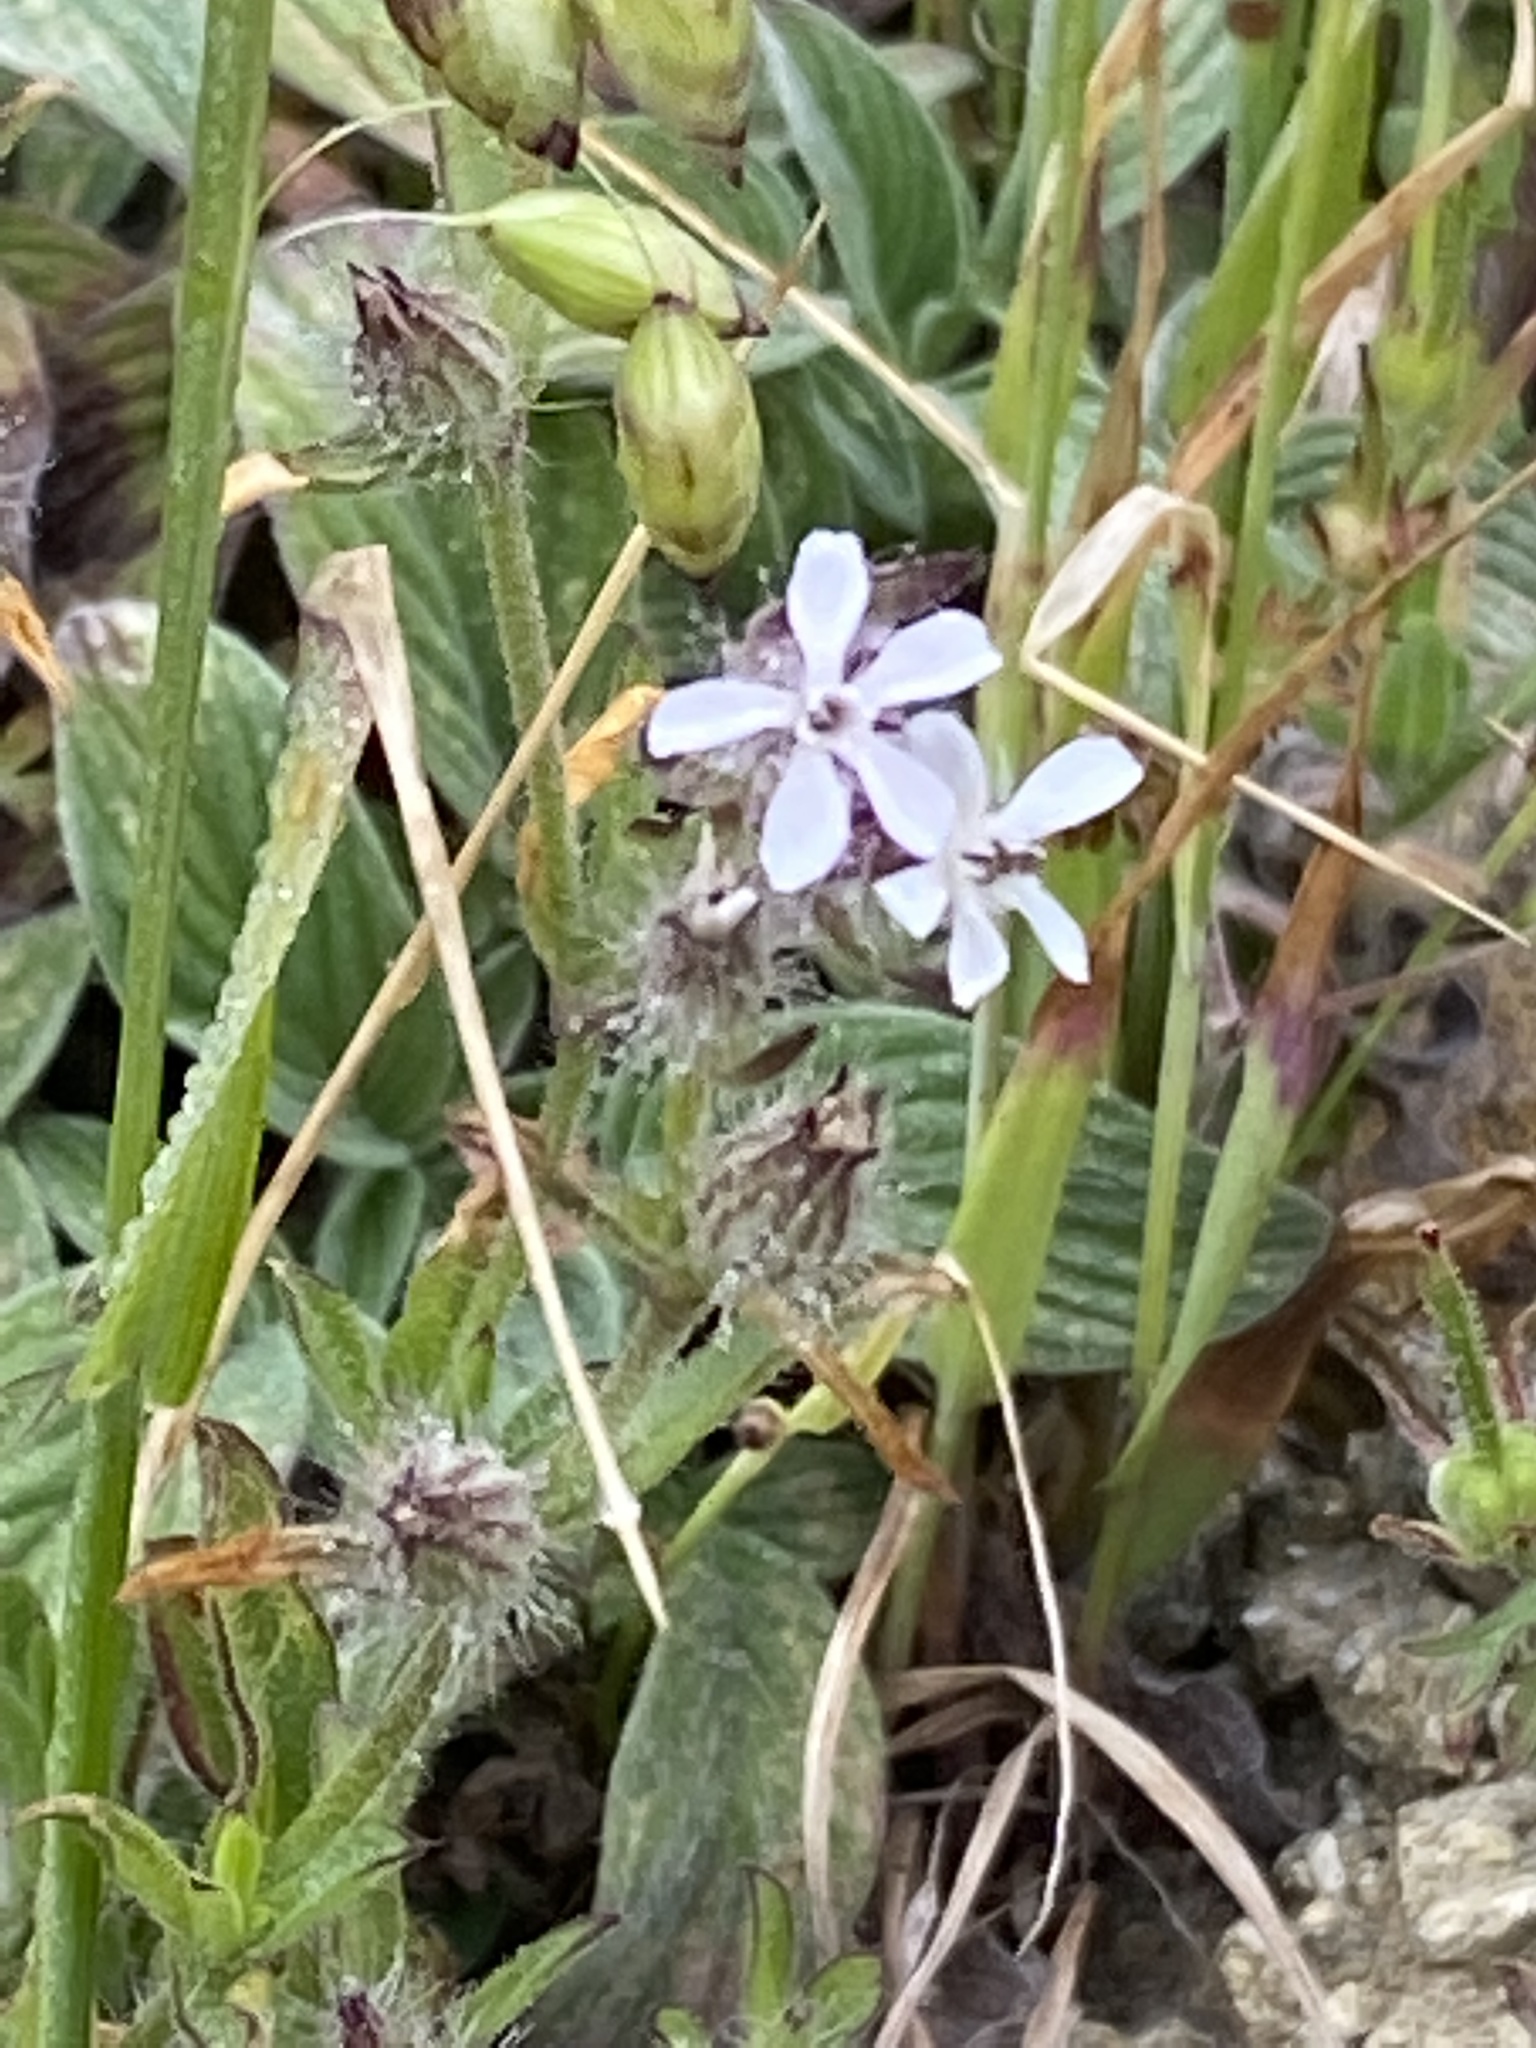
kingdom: Plantae
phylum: Tracheophyta
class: Magnoliopsida
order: Caryophyllales
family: Caryophyllaceae
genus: Silene
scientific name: Silene gallica
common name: Small-flowered catchfly
